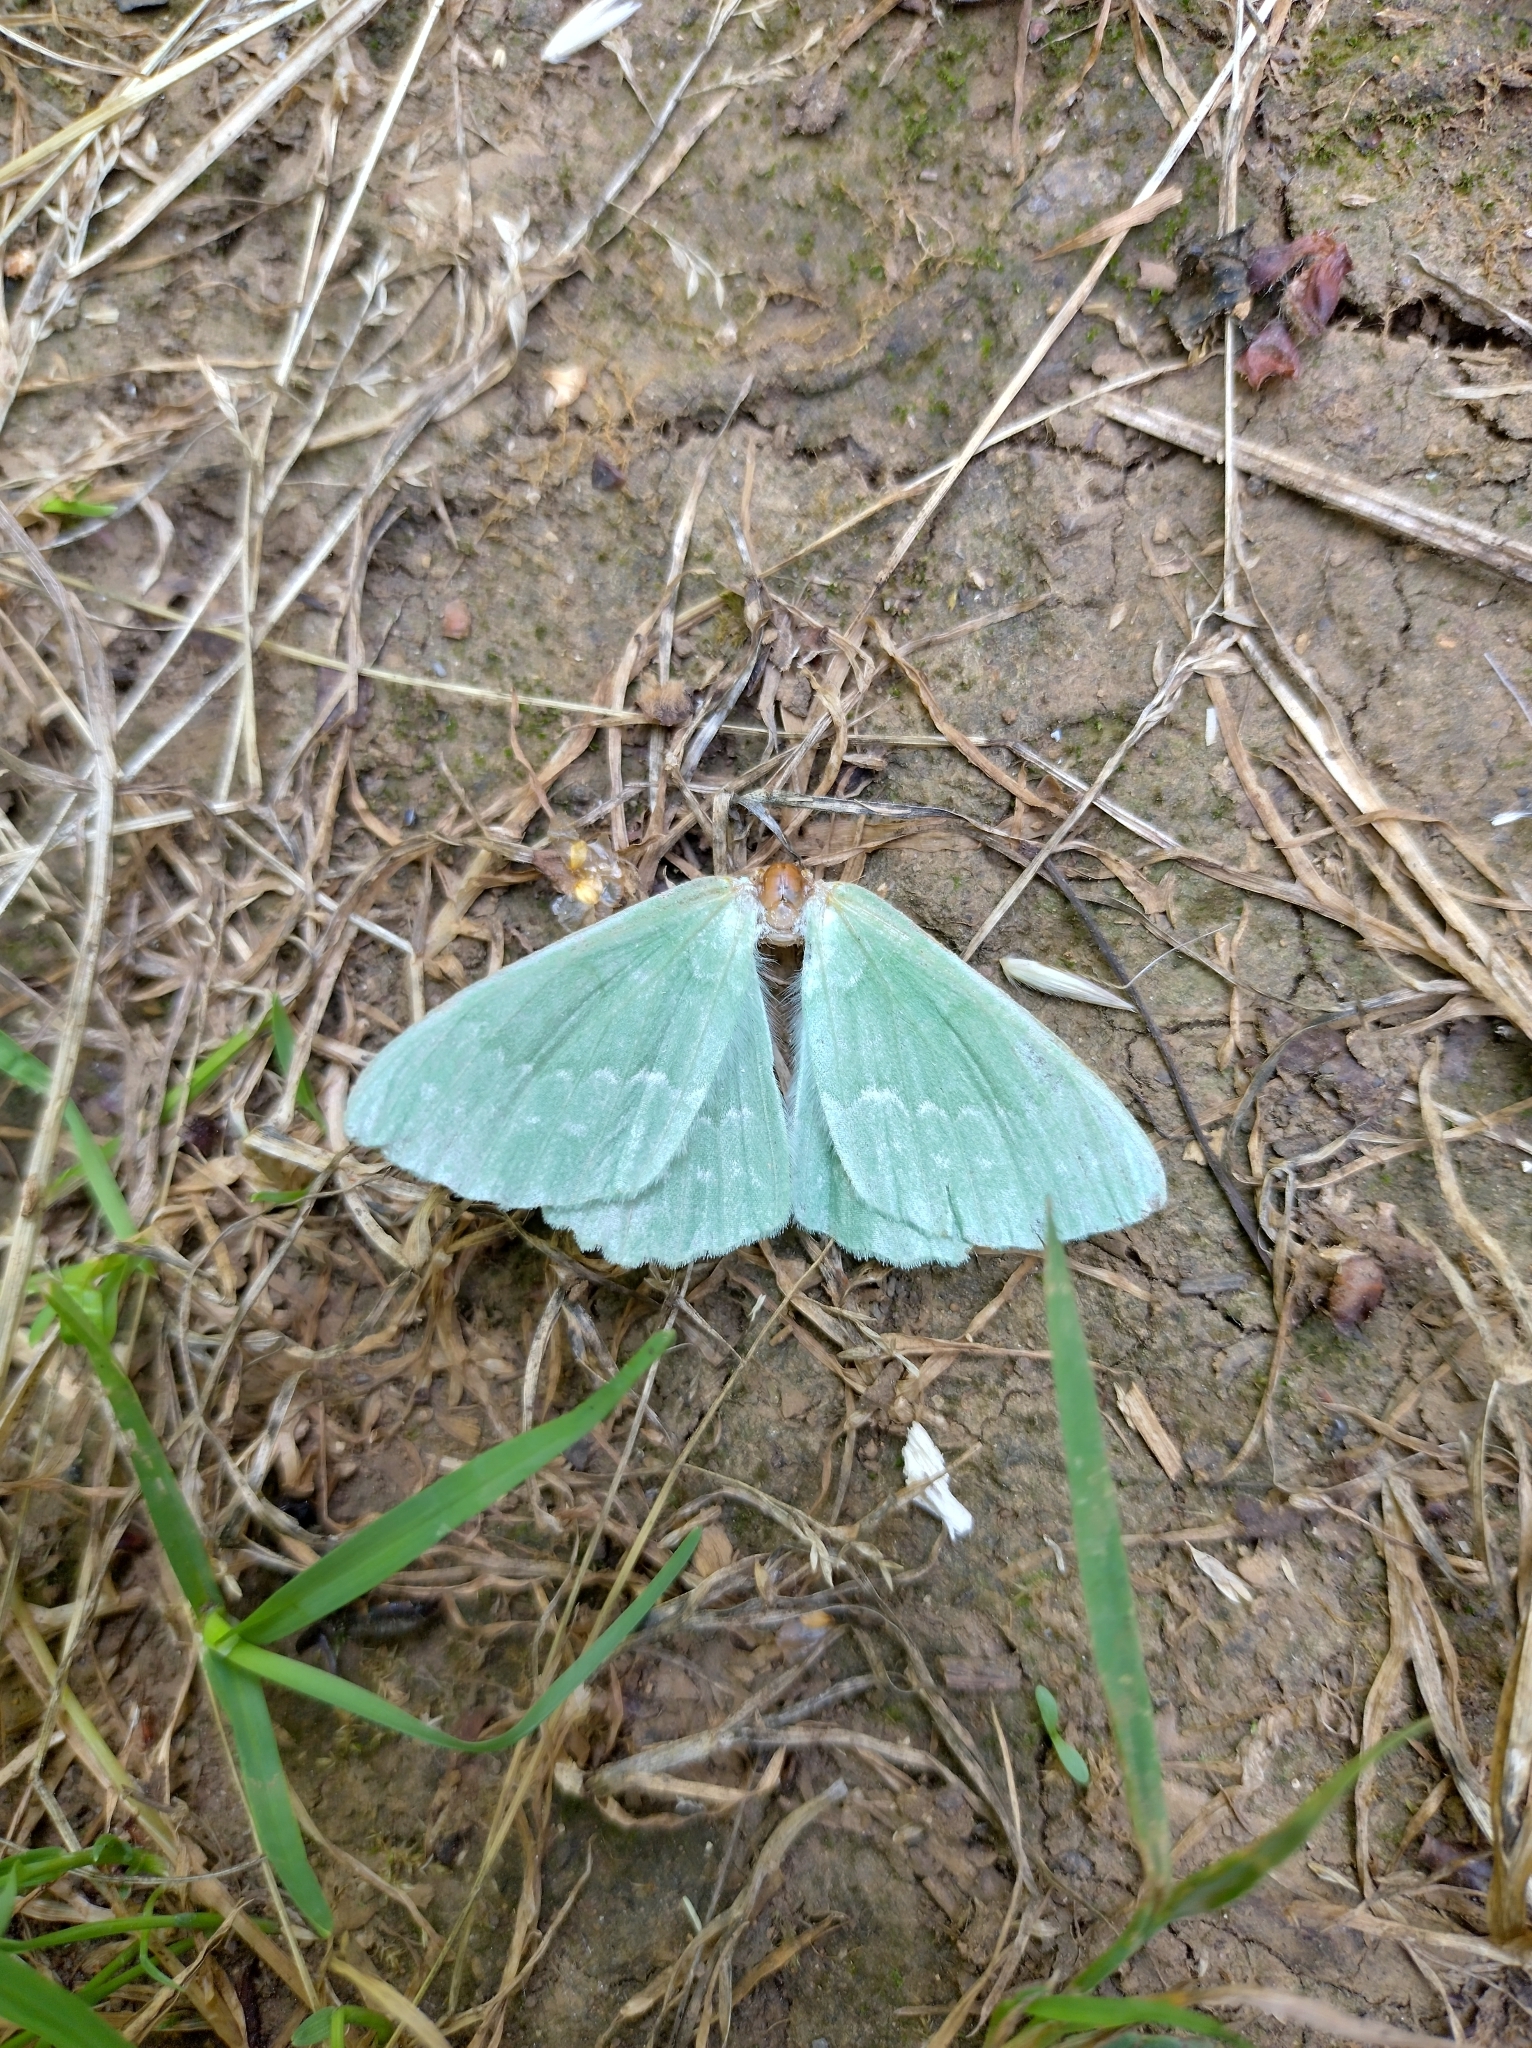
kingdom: Animalia
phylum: Arthropoda
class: Insecta
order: Lepidoptera
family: Geometridae
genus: Geometra
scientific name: Geometra papilionaria
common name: Large emerald
